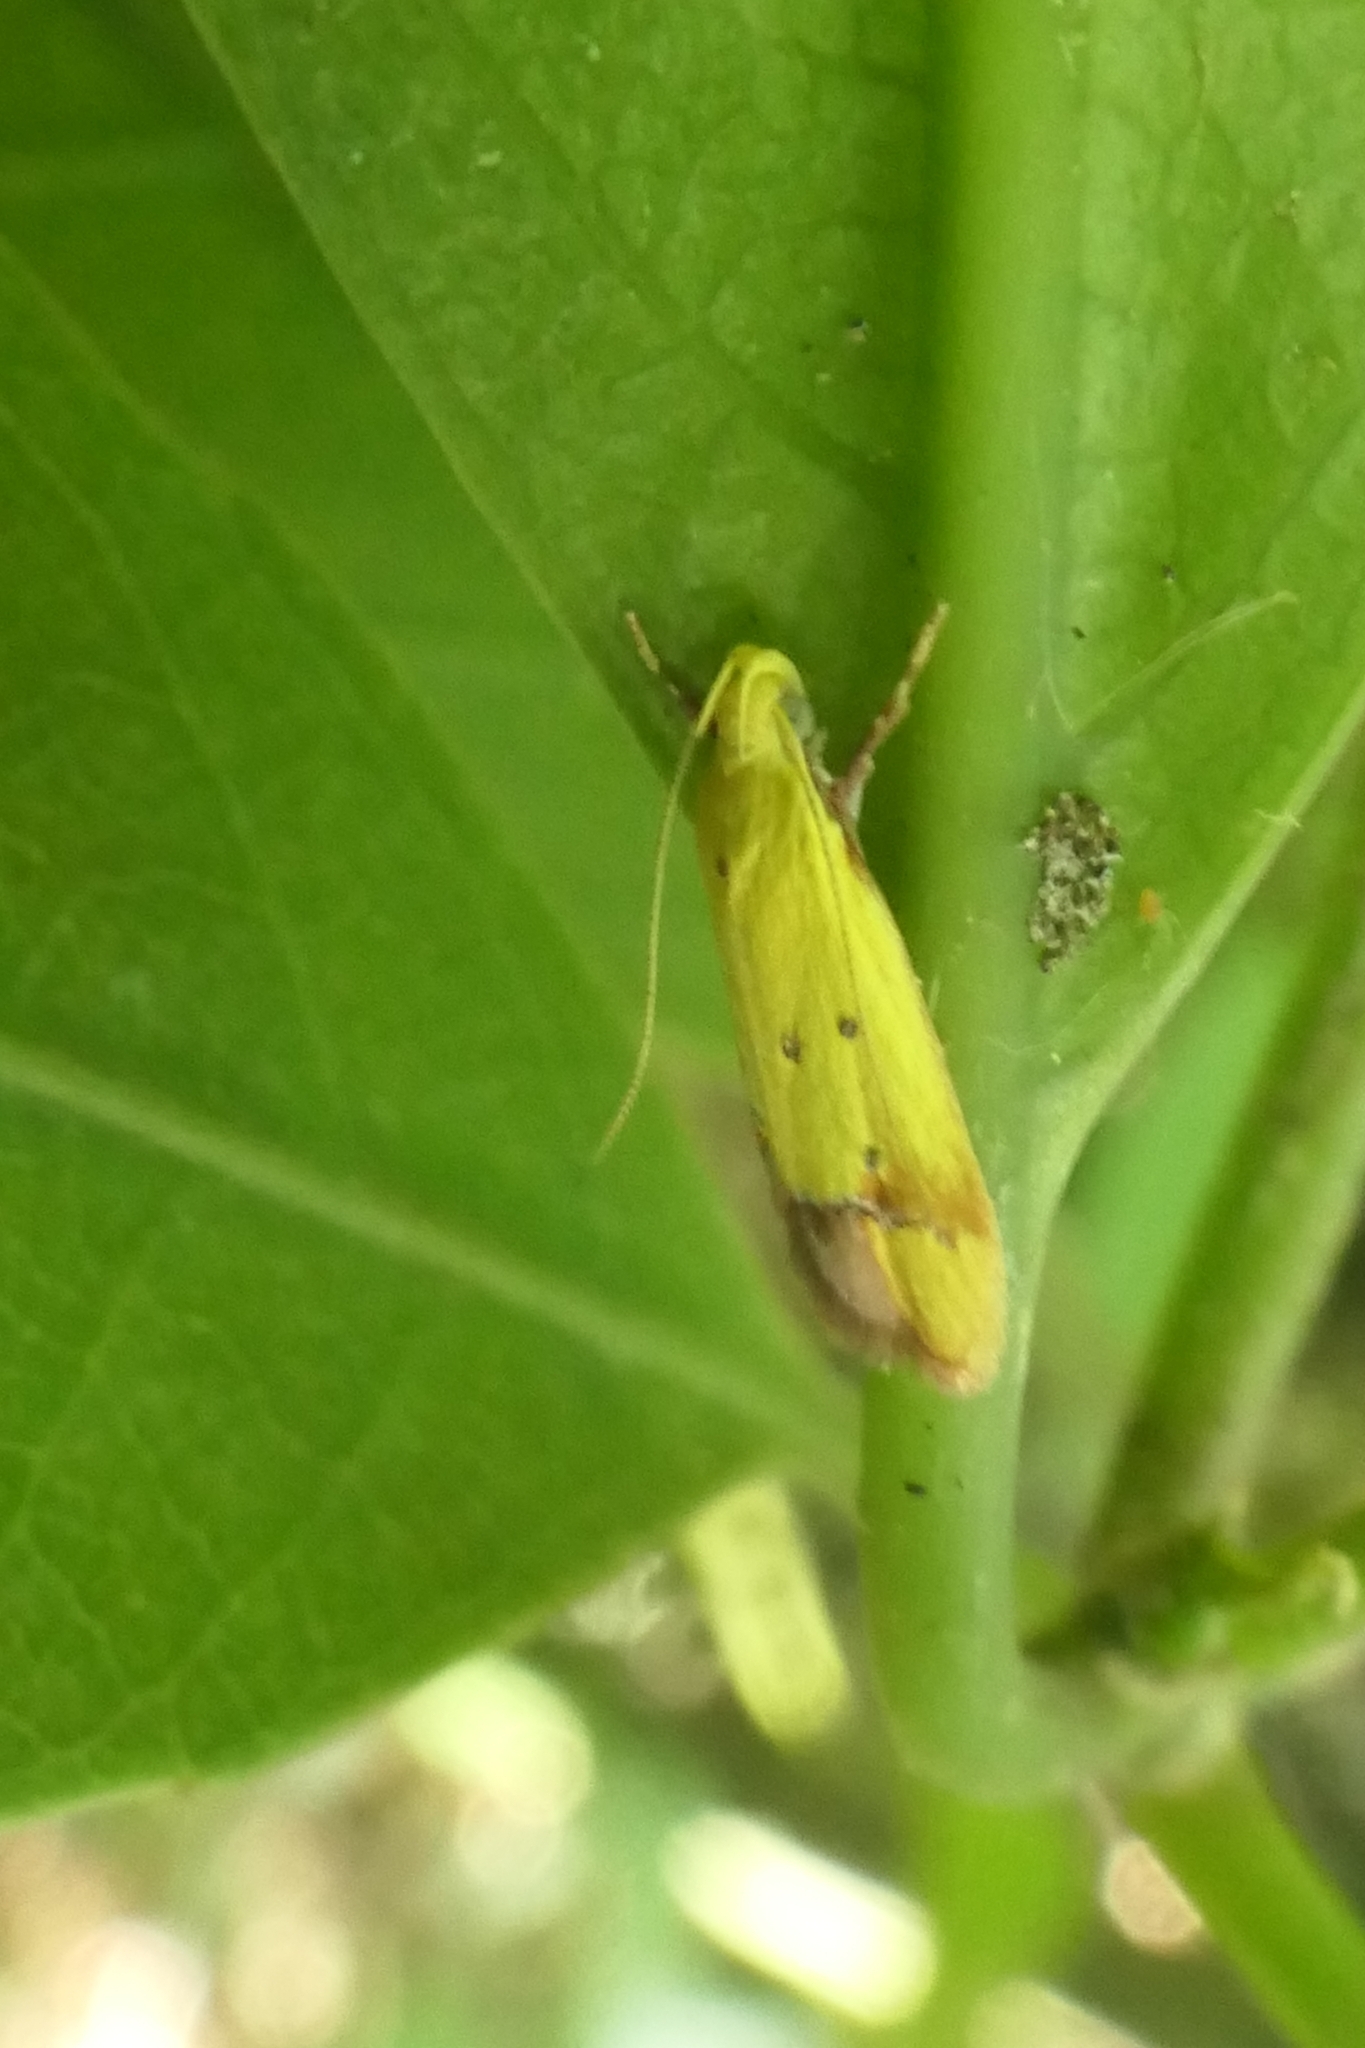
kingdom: Animalia
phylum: Arthropoda
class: Insecta
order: Lepidoptera
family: Oecophoridae
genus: Gymnobathra
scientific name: Gymnobathra flavidella
